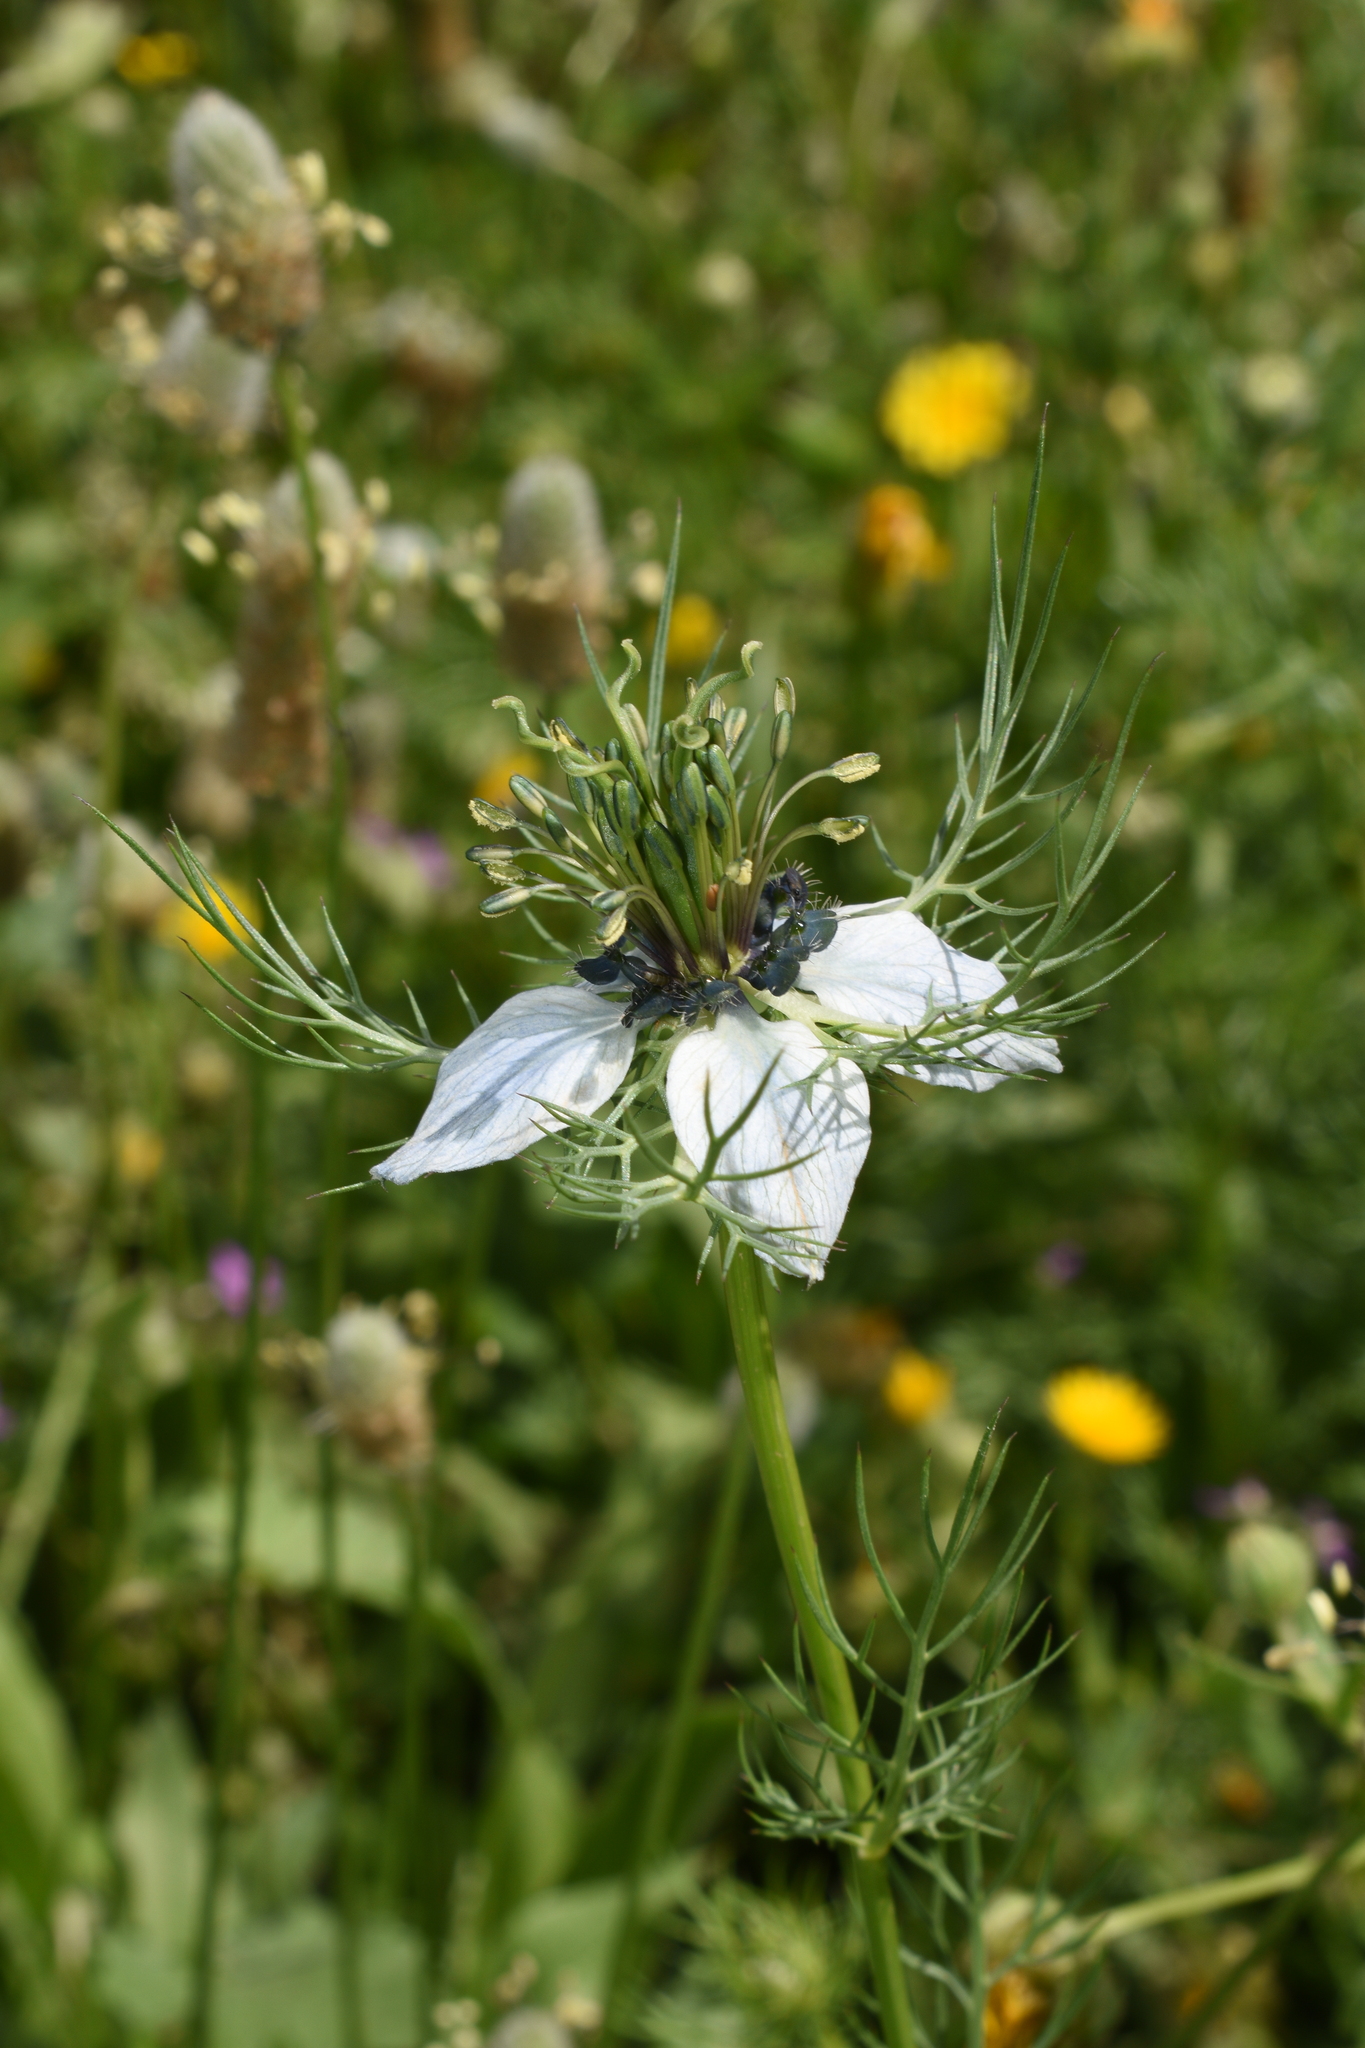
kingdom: Plantae
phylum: Tracheophyta
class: Magnoliopsida
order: Ranunculales
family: Ranunculaceae
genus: Nigella
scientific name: Nigella damascena
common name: Love-in-a-mist
